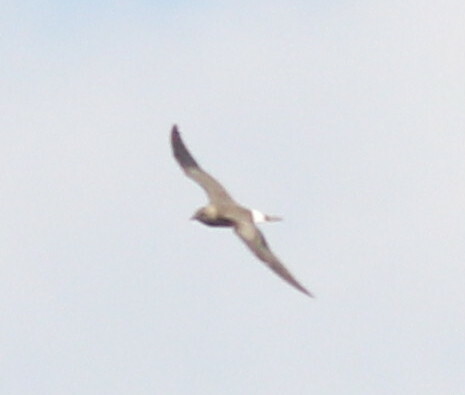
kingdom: Animalia
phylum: Chordata
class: Aves
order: Charadriiformes
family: Glareolidae
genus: Glareola
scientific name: Glareola nordmanni
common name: Black-winged pratincole
